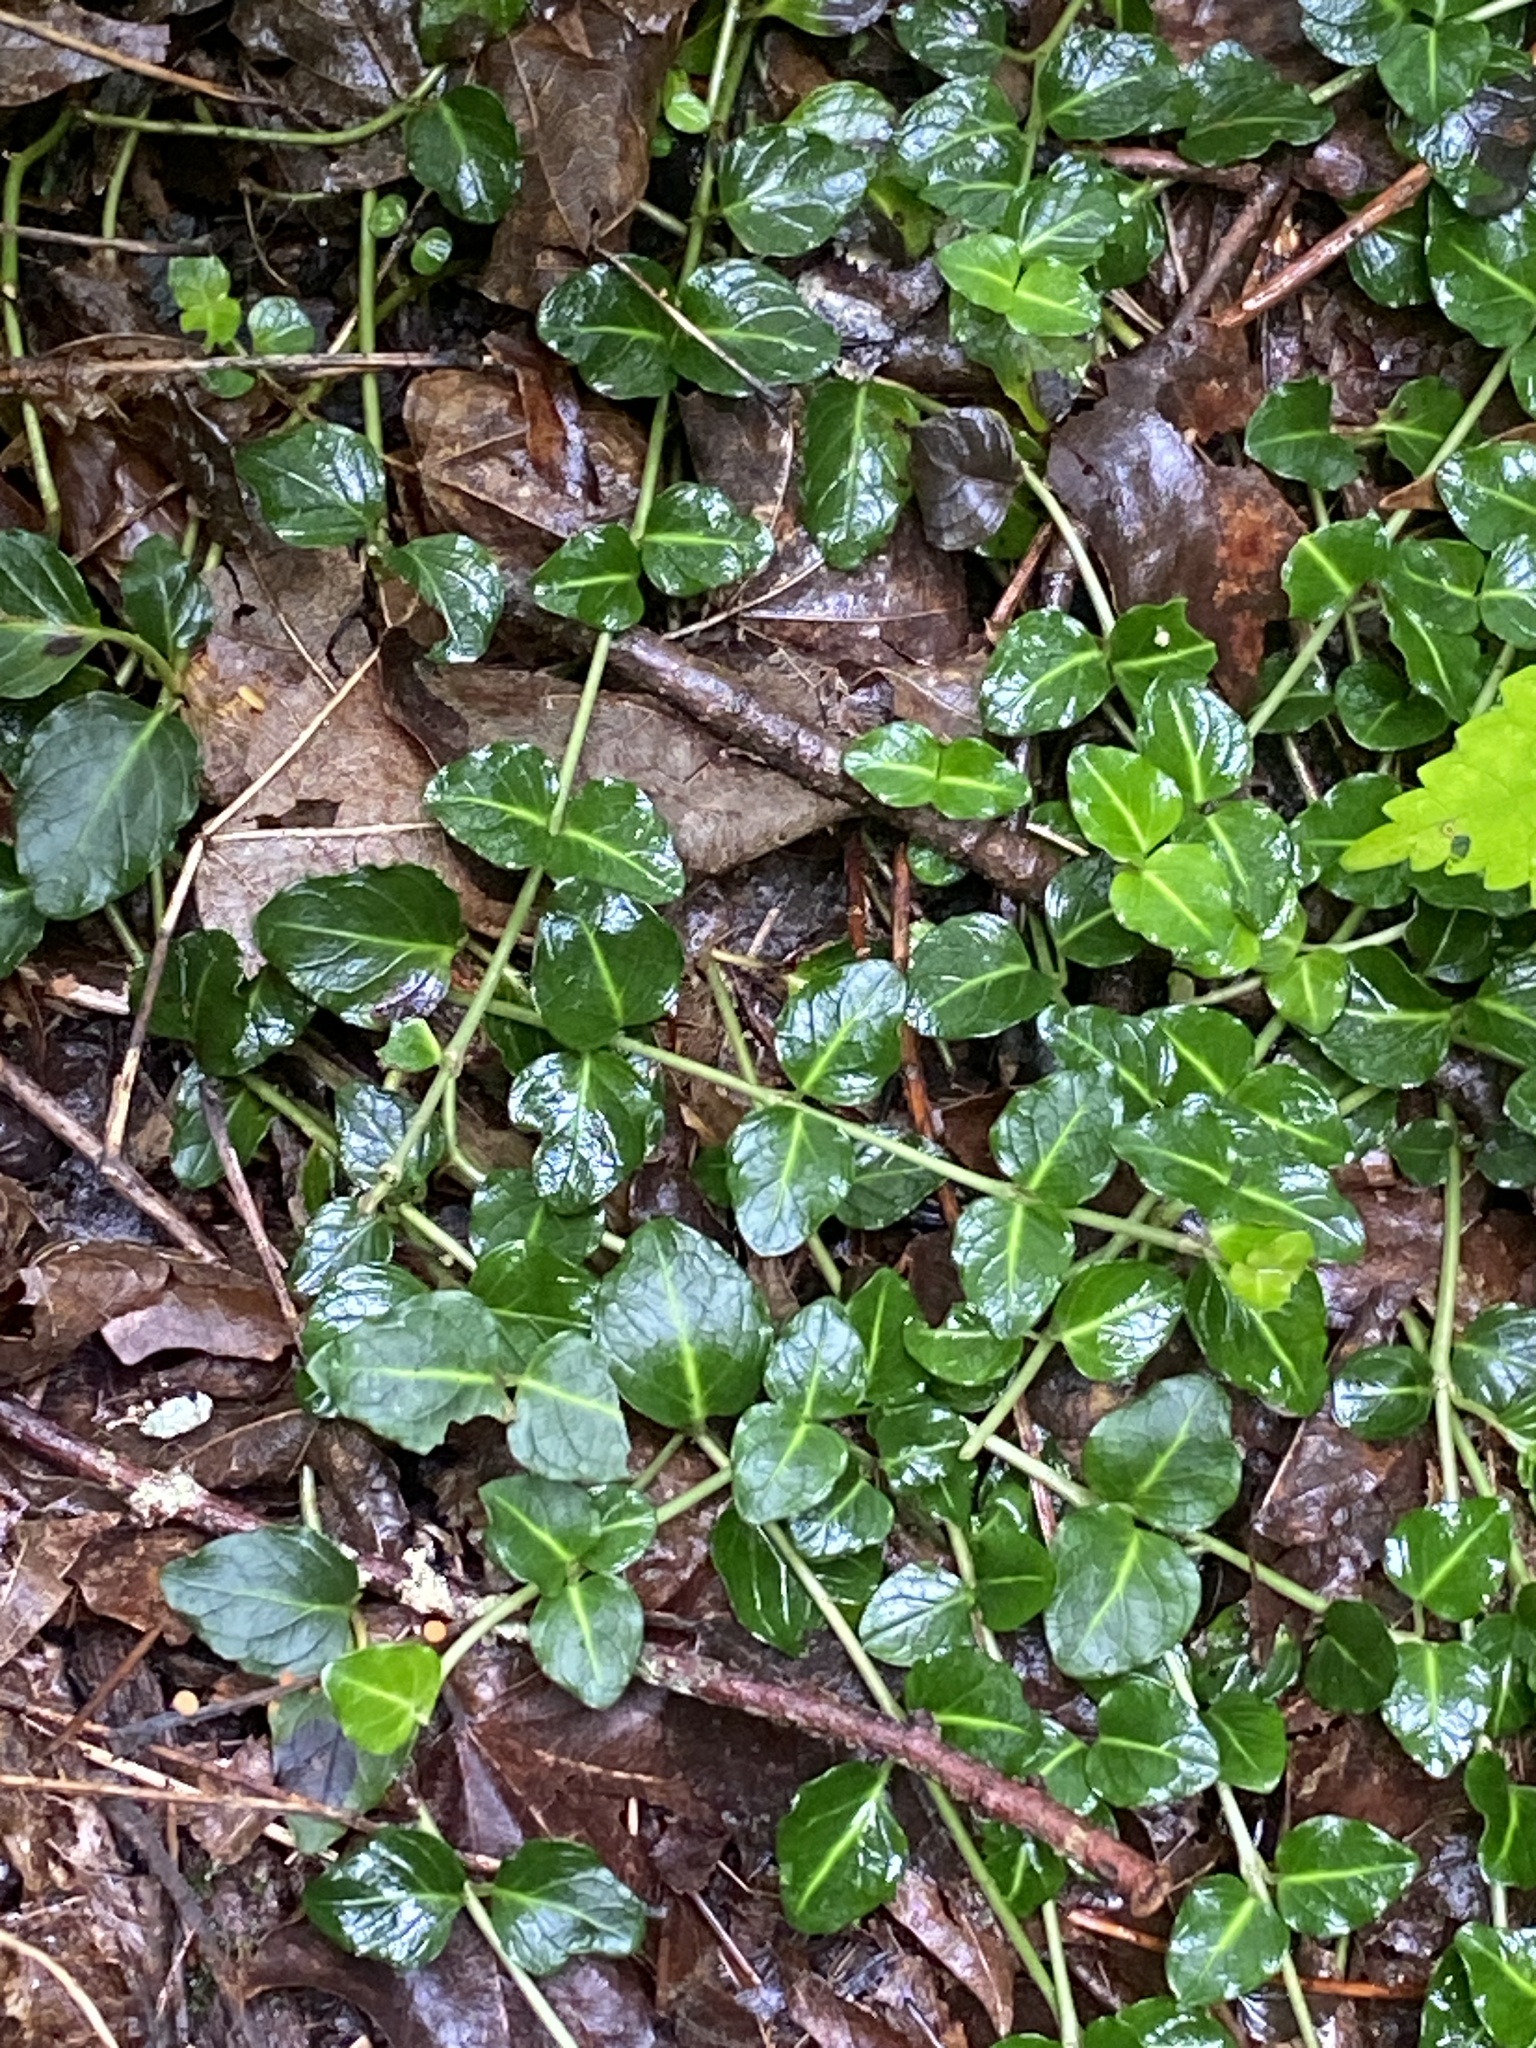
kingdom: Plantae
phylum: Tracheophyta
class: Magnoliopsida
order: Gentianales
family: Rubiaceae
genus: Mitchella
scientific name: Mitchella repens
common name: Partridge-berry
